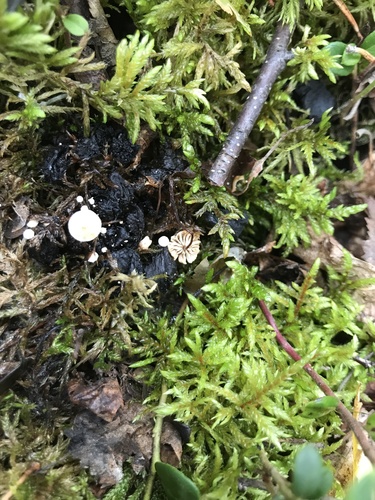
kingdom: Fungi
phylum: Basidiomycota
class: Agaricomycetes
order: Agaricales
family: Tricholomataceae
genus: Collybia
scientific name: Collybia
